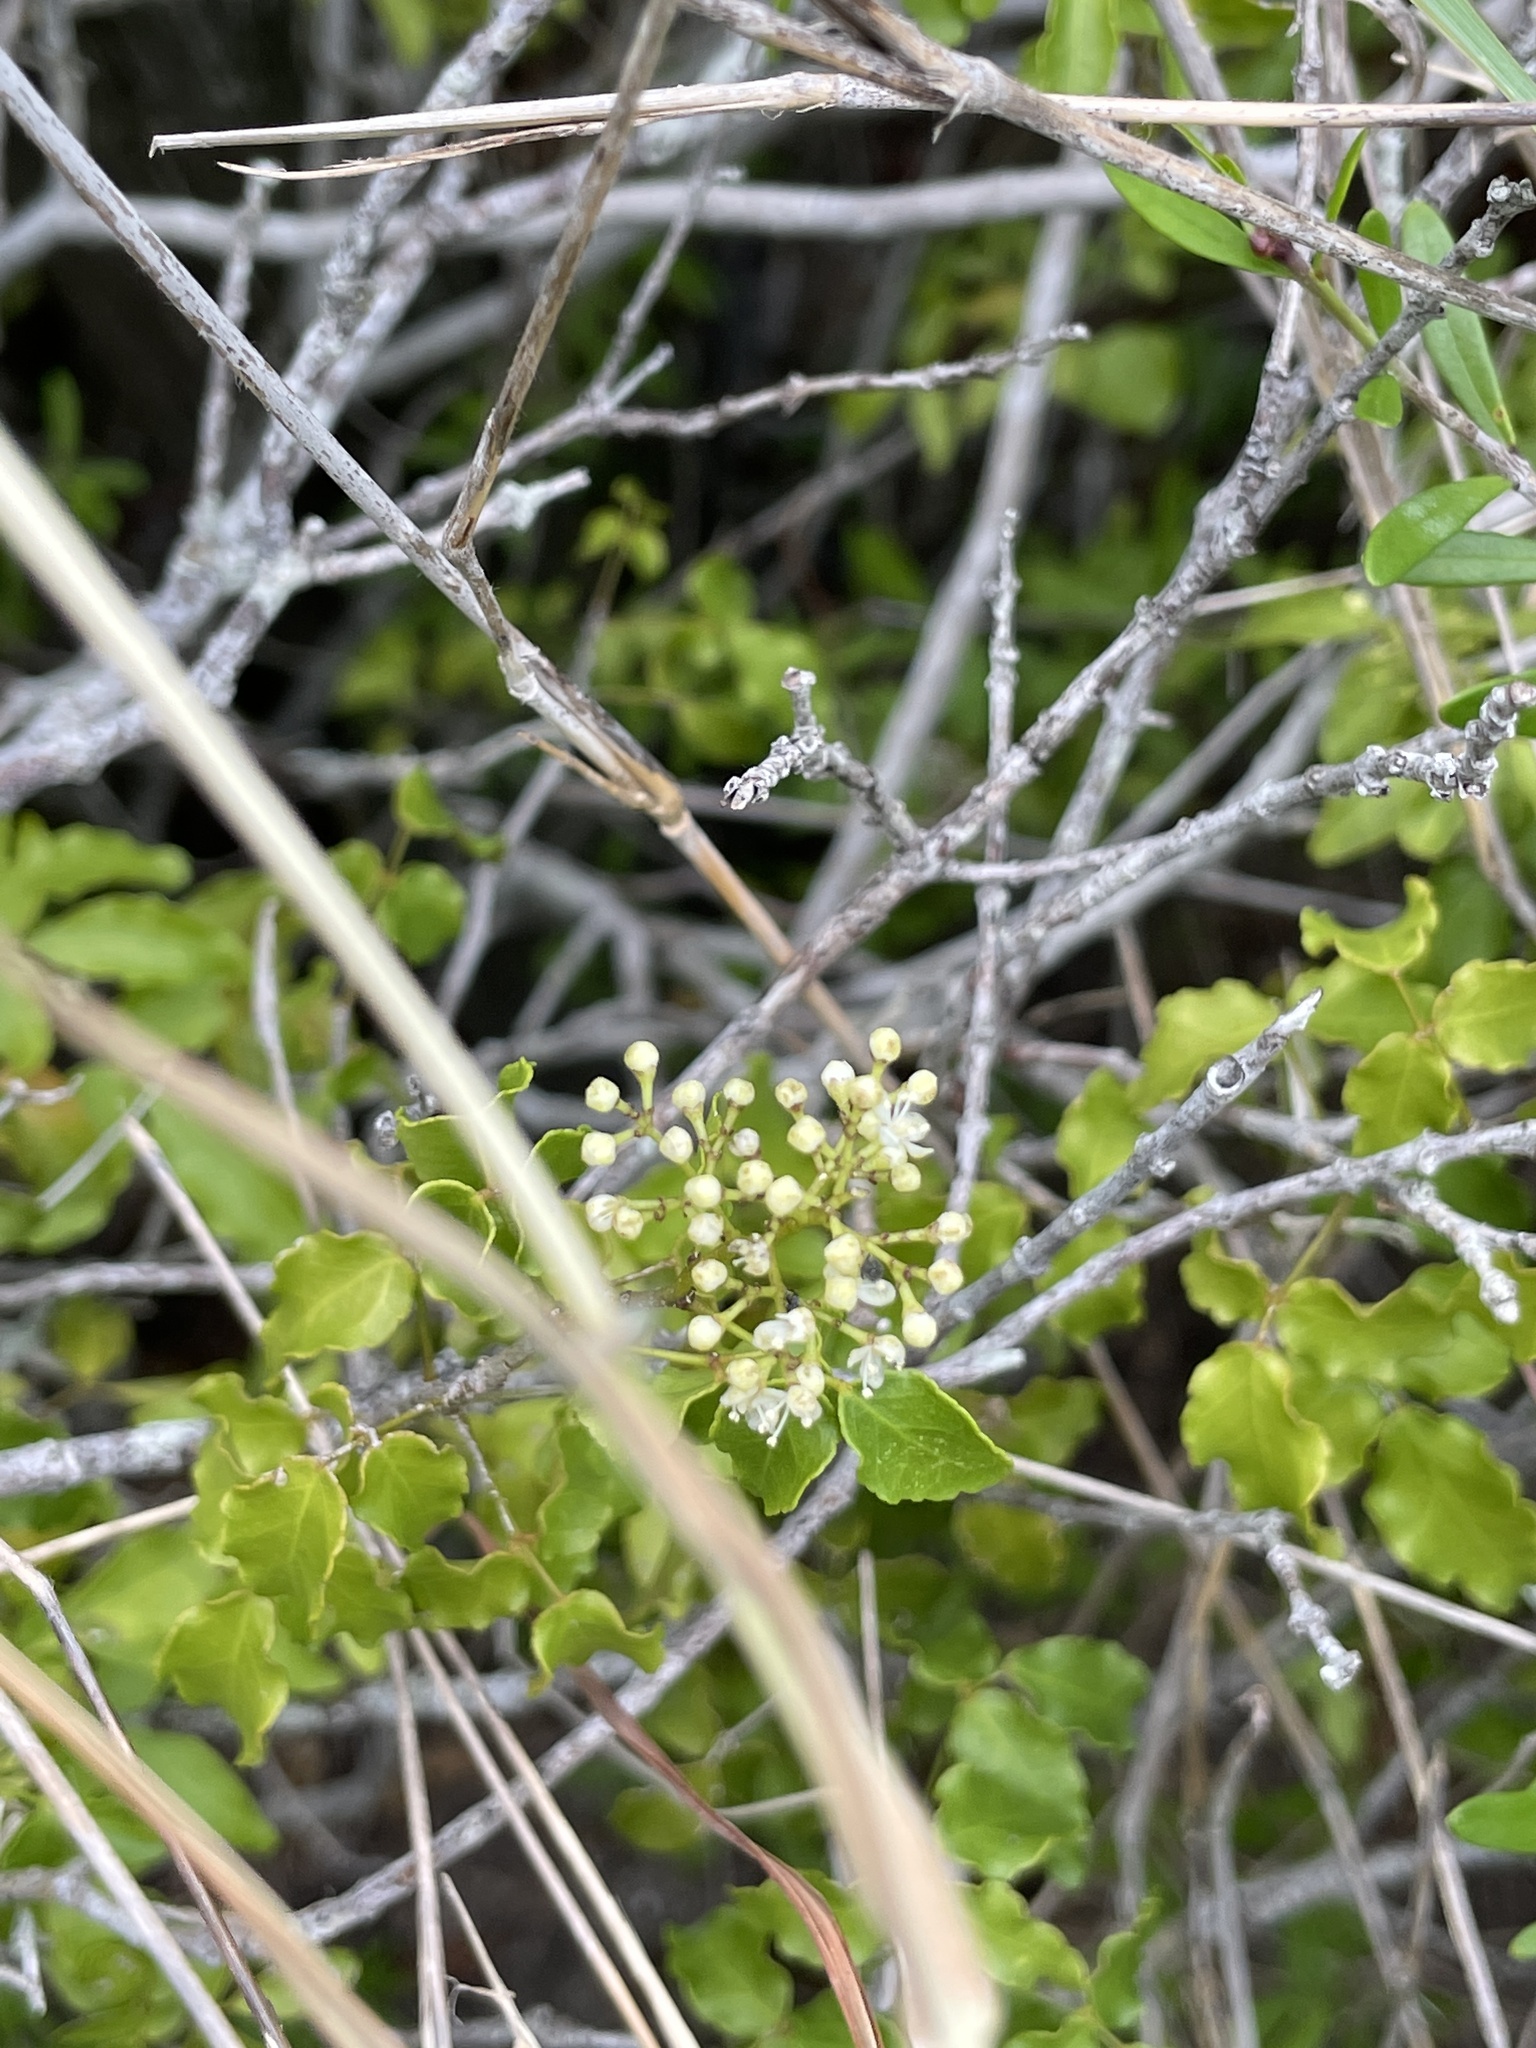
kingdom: Plantae
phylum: Tracheophyta
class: Magnoliopsida
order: Sapindales
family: Rutaceae
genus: Amyris
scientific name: Amyris texana
